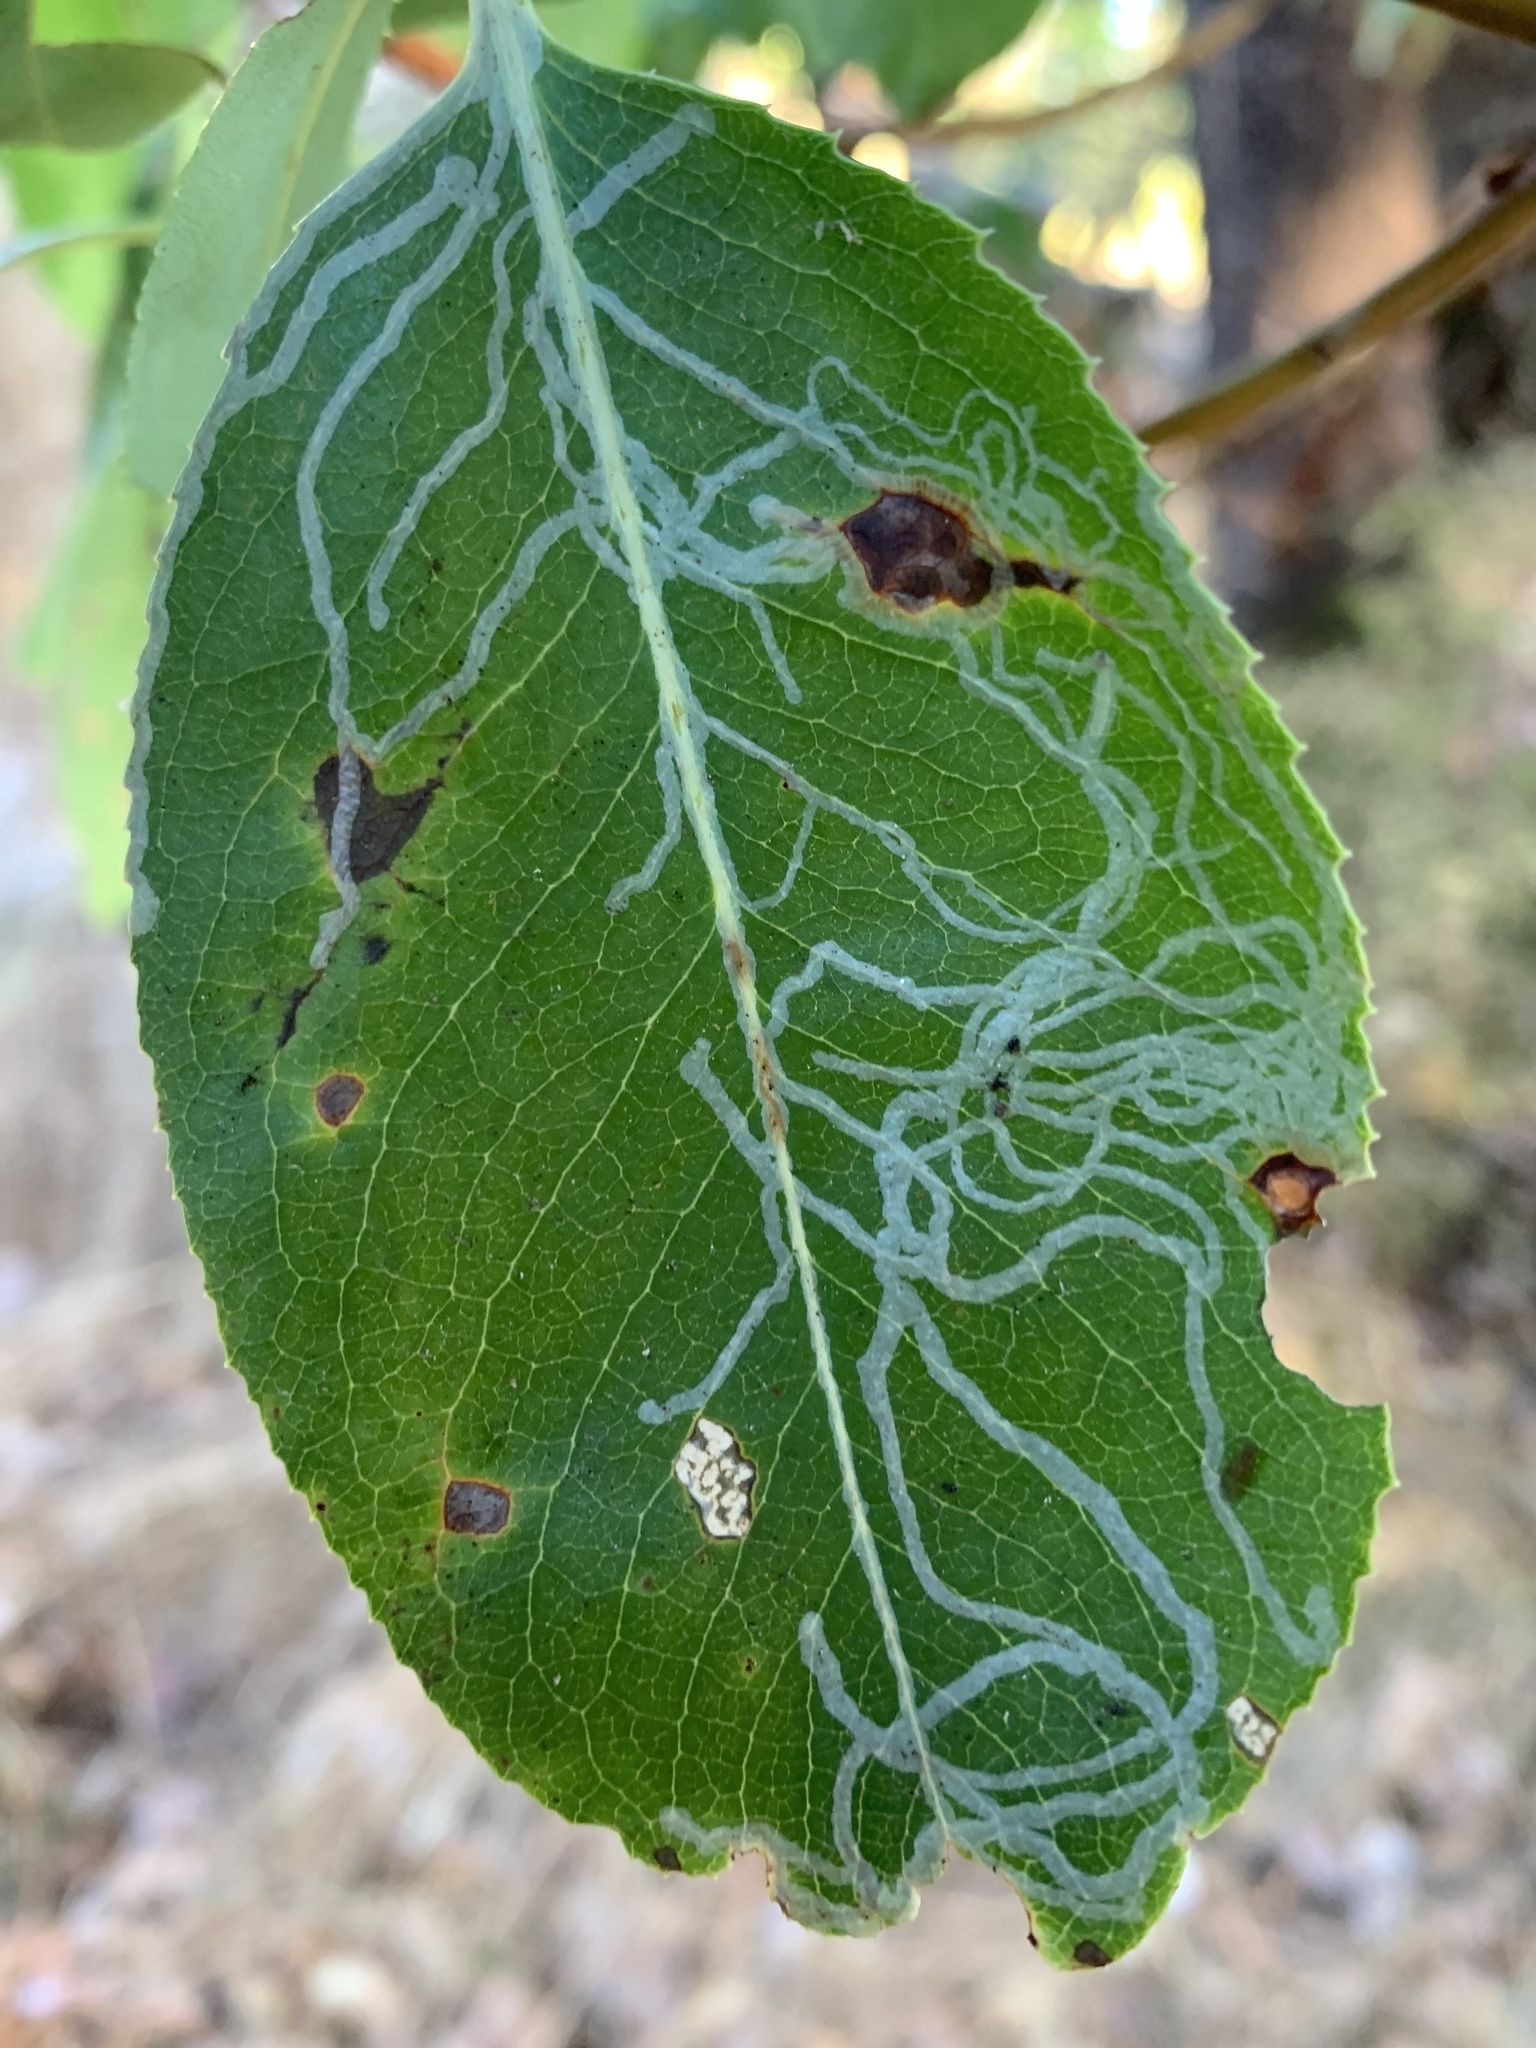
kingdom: Animalia
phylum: Arthropoda
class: Insecta
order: Lepidoptera
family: Gracillariidae
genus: Marmara
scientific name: Marmara arbutiella
